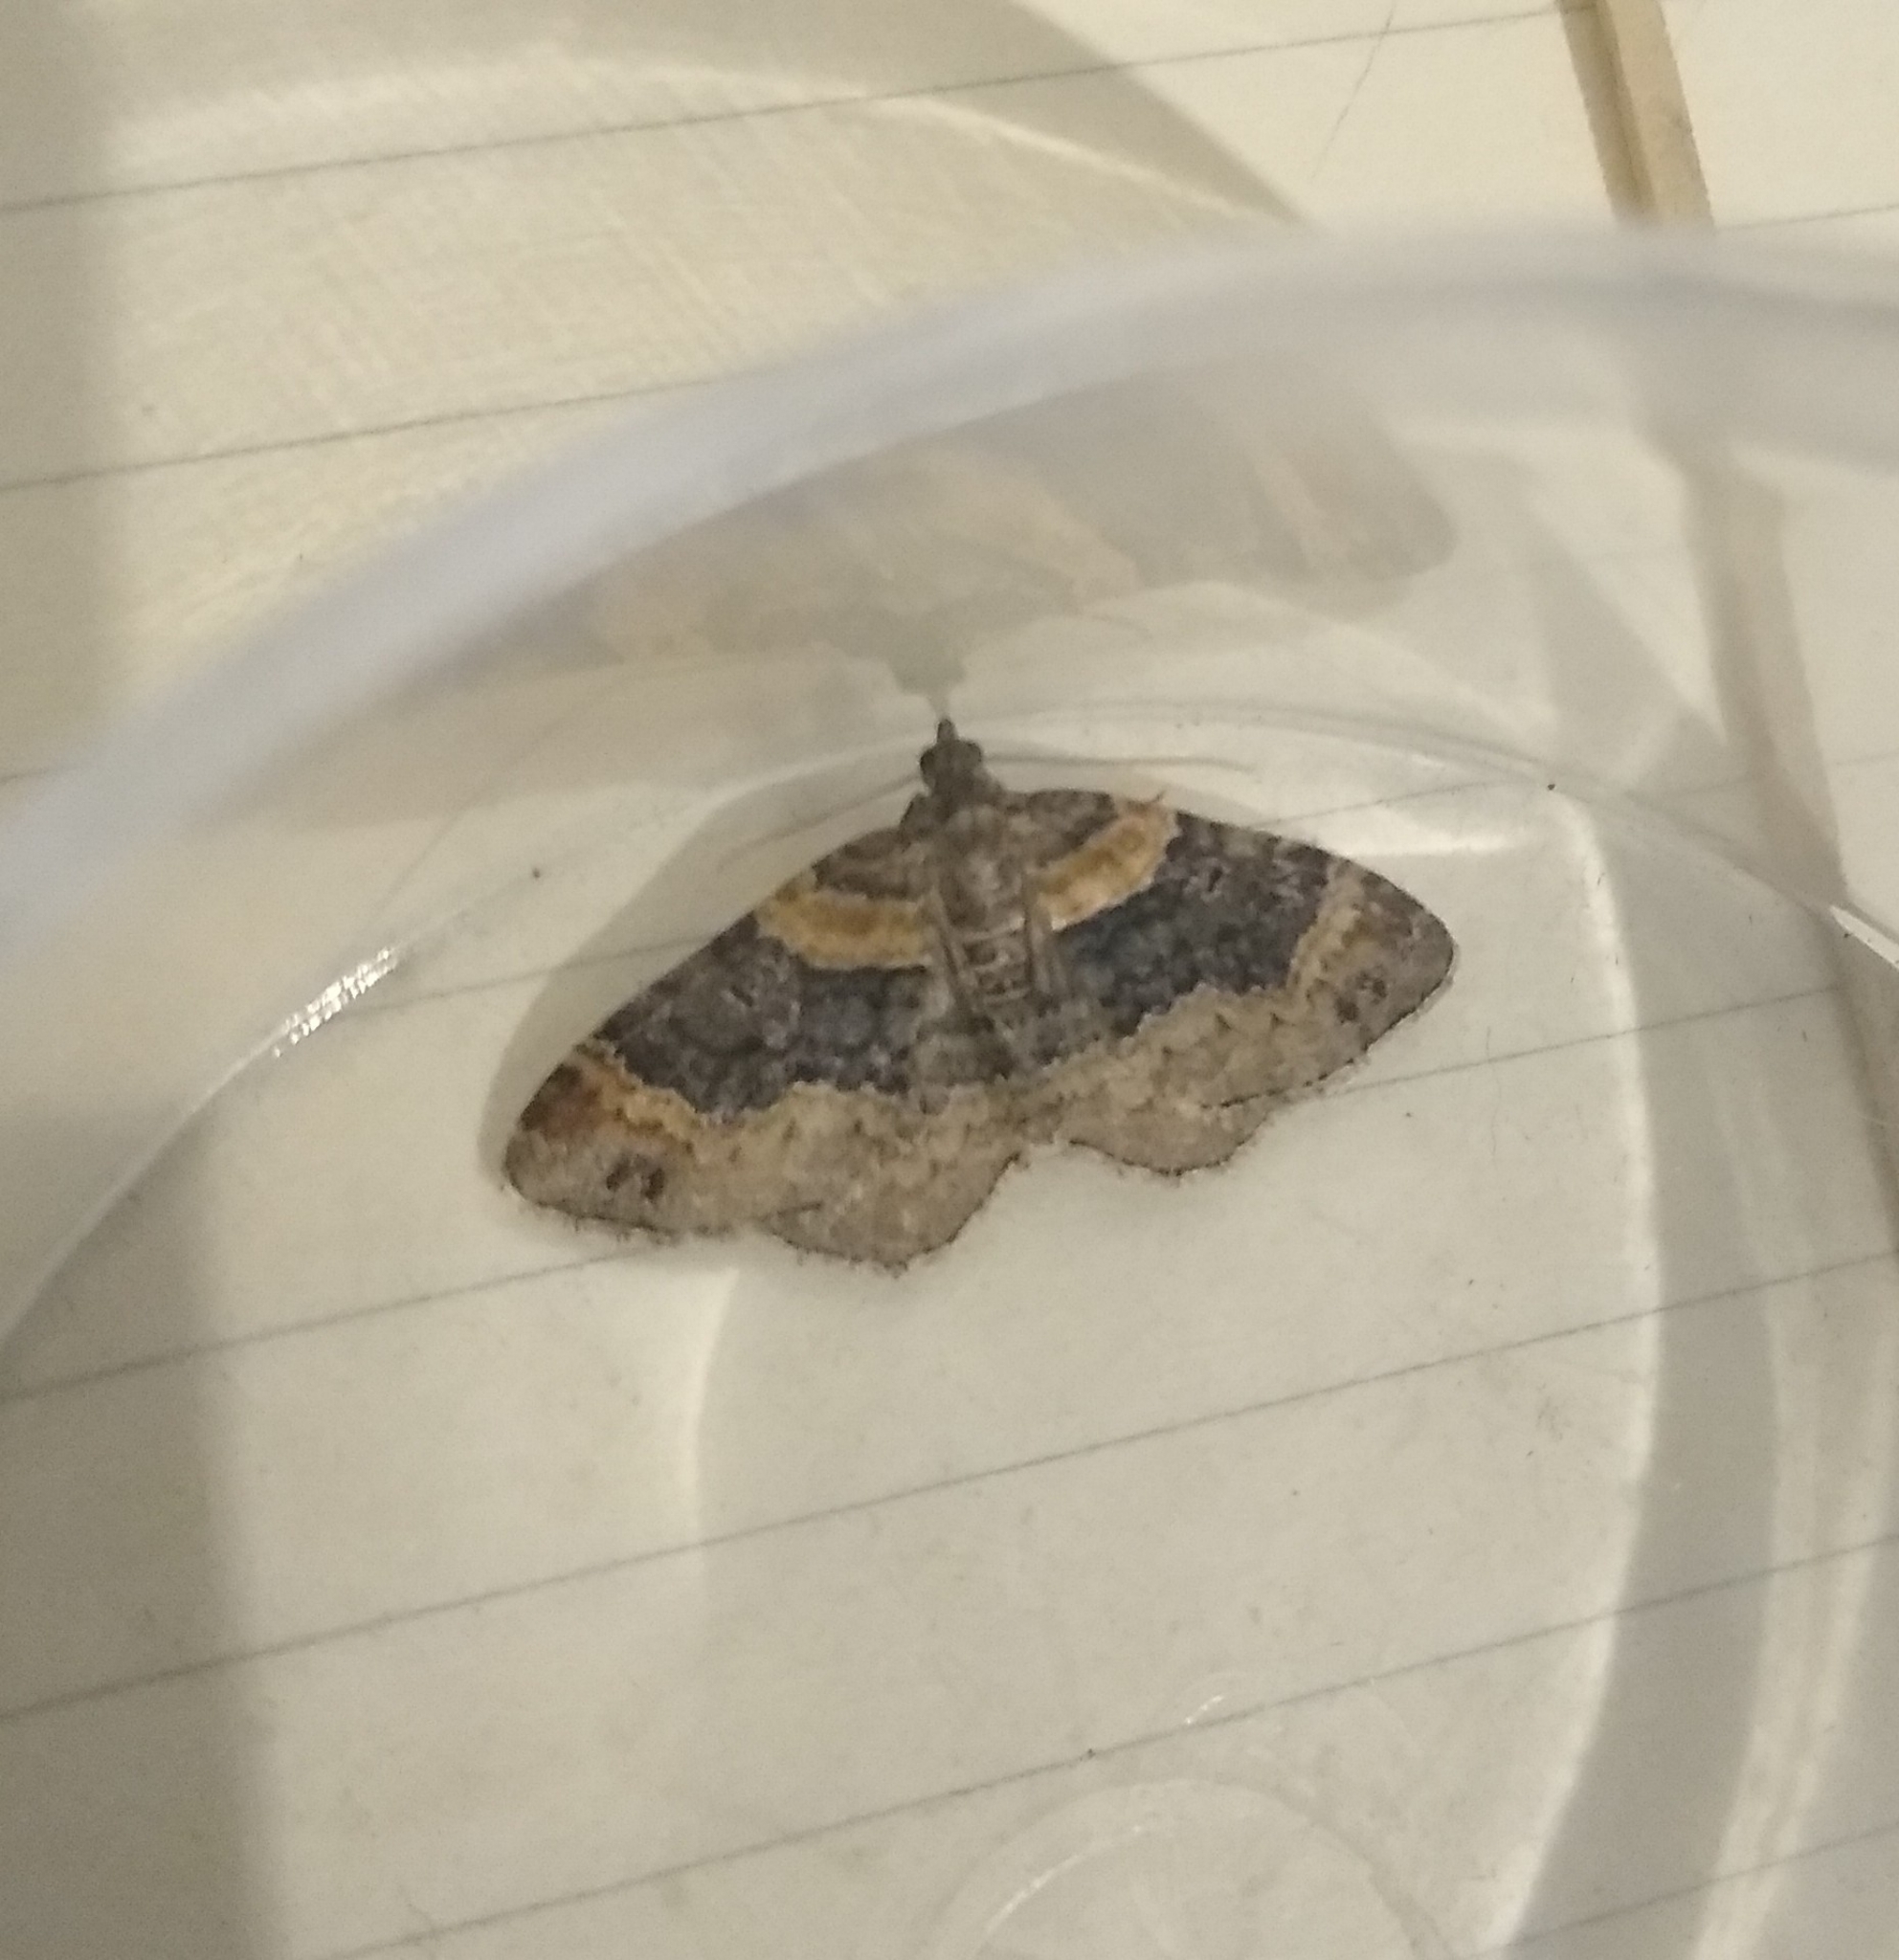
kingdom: Animalia
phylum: Arthropoda
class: Insecta
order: Lepidoptera
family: Geometridae
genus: Xanthorhoe
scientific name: Xanthorhoe ferrugata
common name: Dark-barred twin-spot carpet
